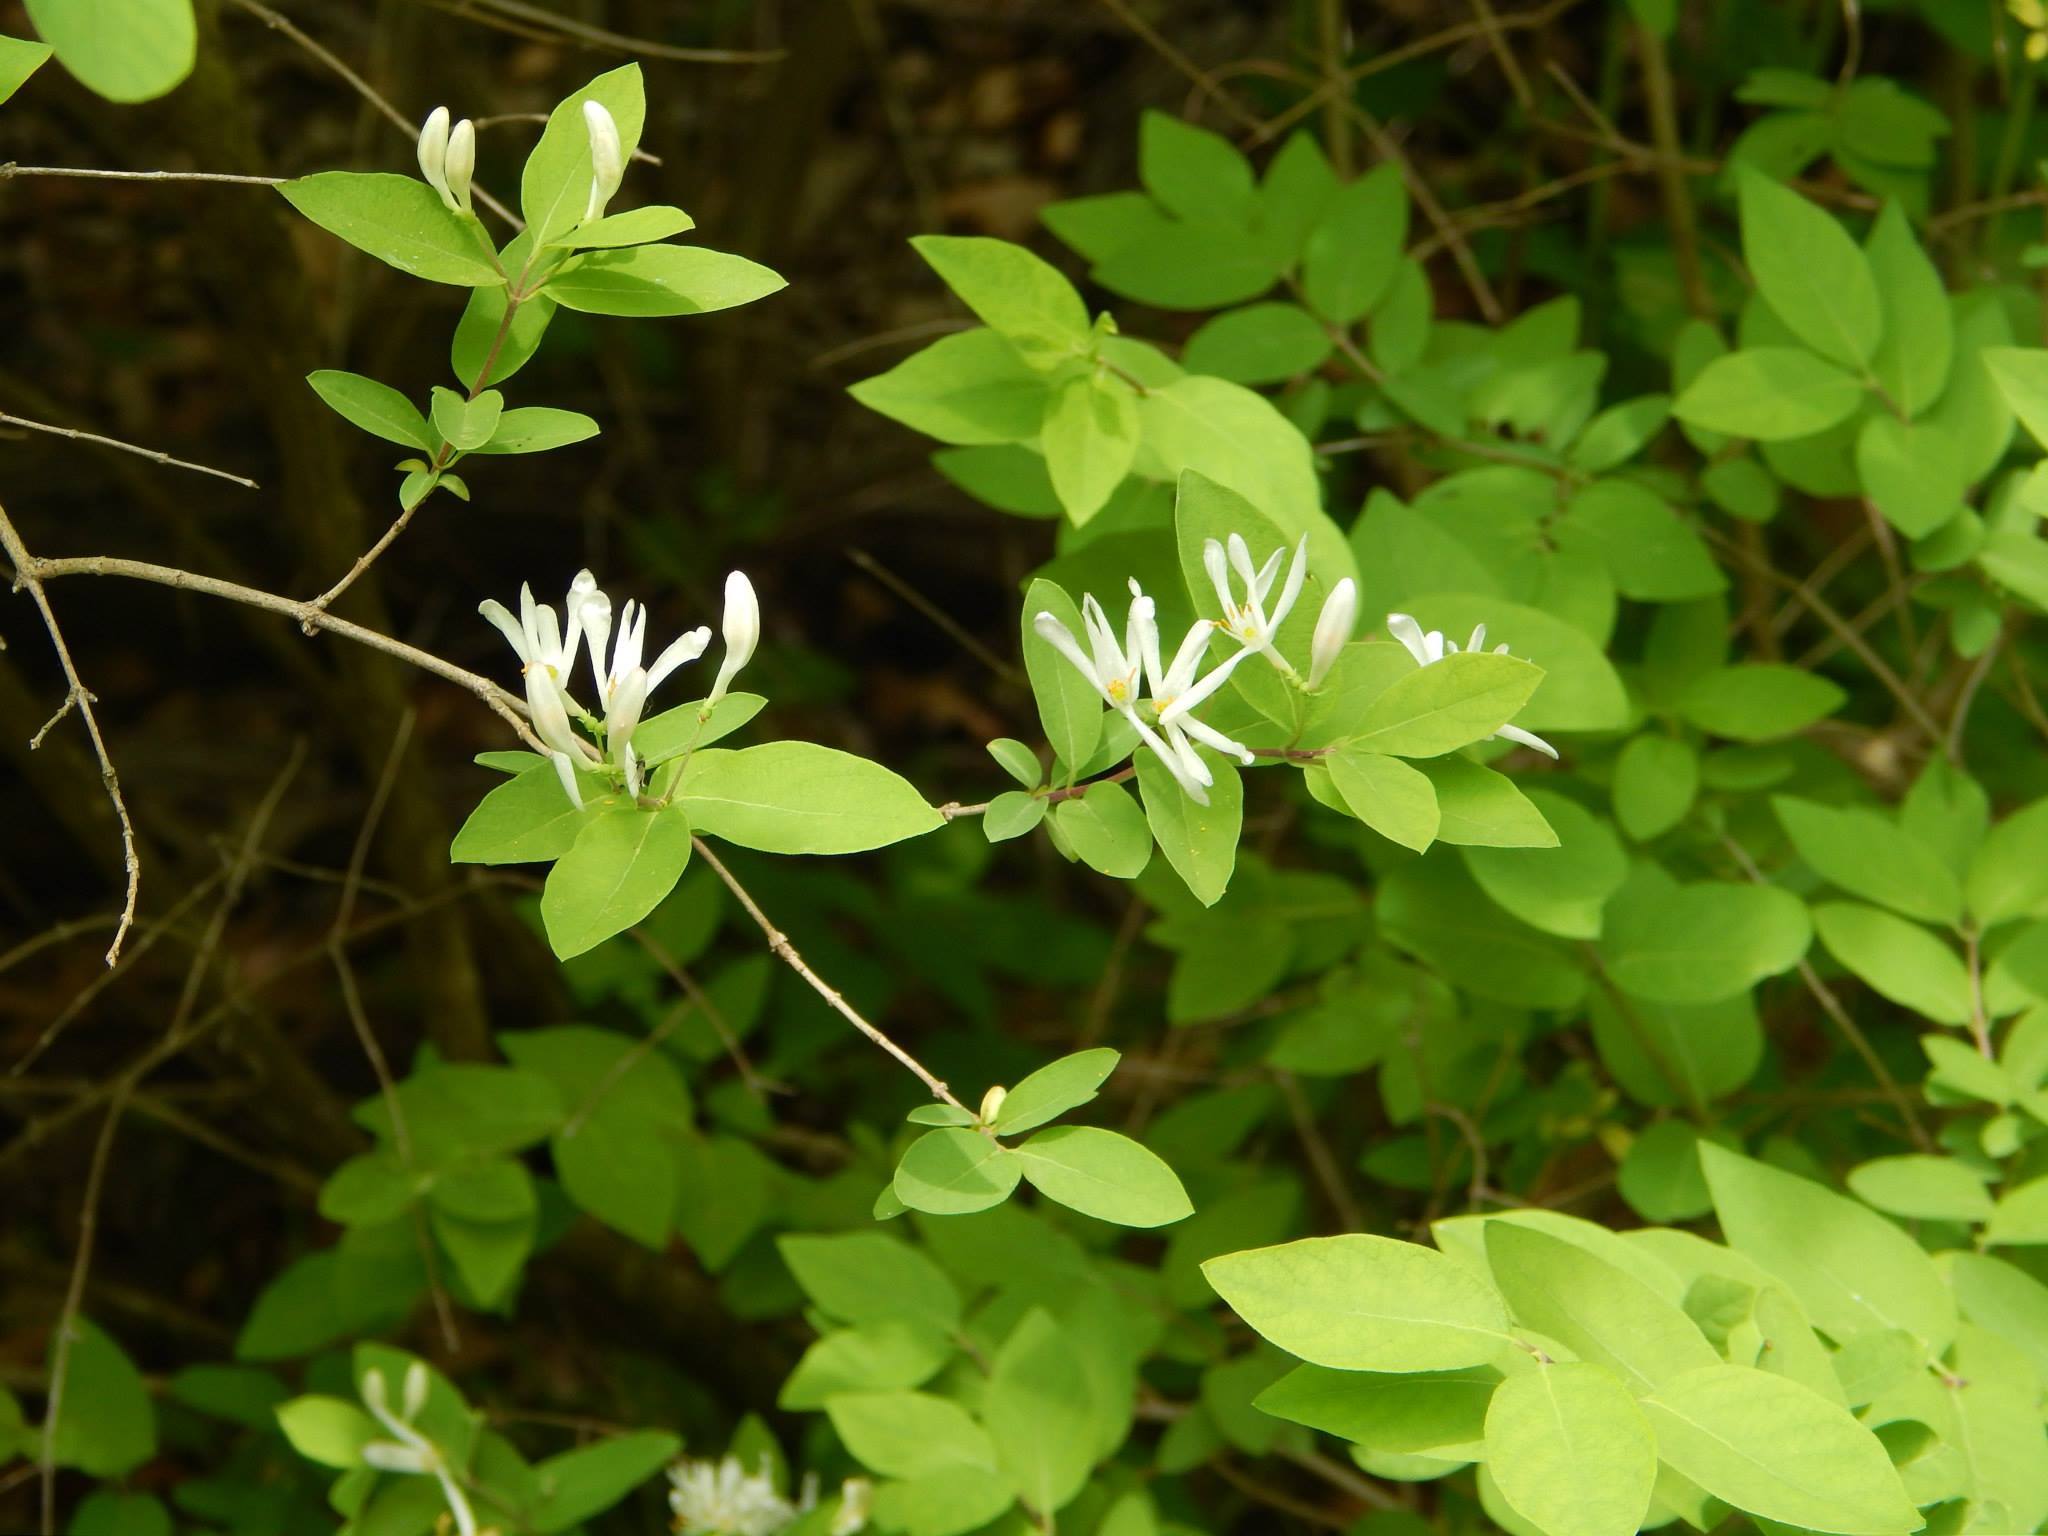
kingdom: Plantae
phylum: Tracheophyta
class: Magnoliopsida
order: Dipsacales
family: Caprifoliaceae
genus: Lonicera
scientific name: Lonicera morrowii
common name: Morrow's honeysuckle
